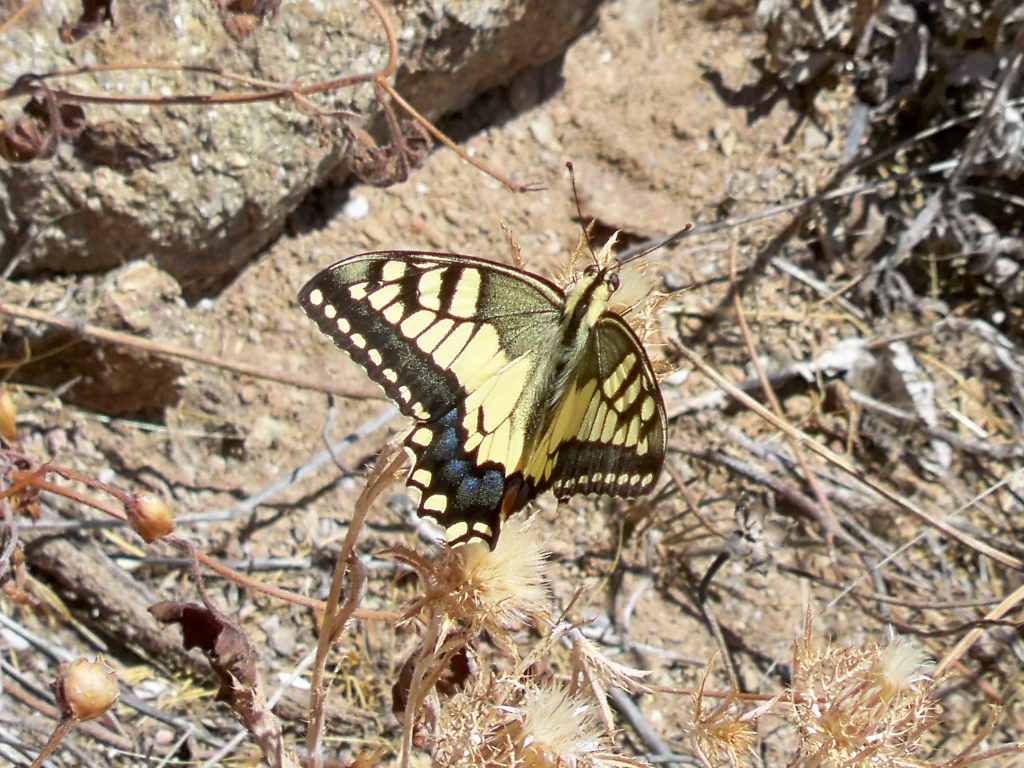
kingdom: Animalia
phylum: Arthropoda
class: Insecta
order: Lepidoptera
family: Papilionidae
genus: Papilio
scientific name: Papilio machaon
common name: Swallowtail
